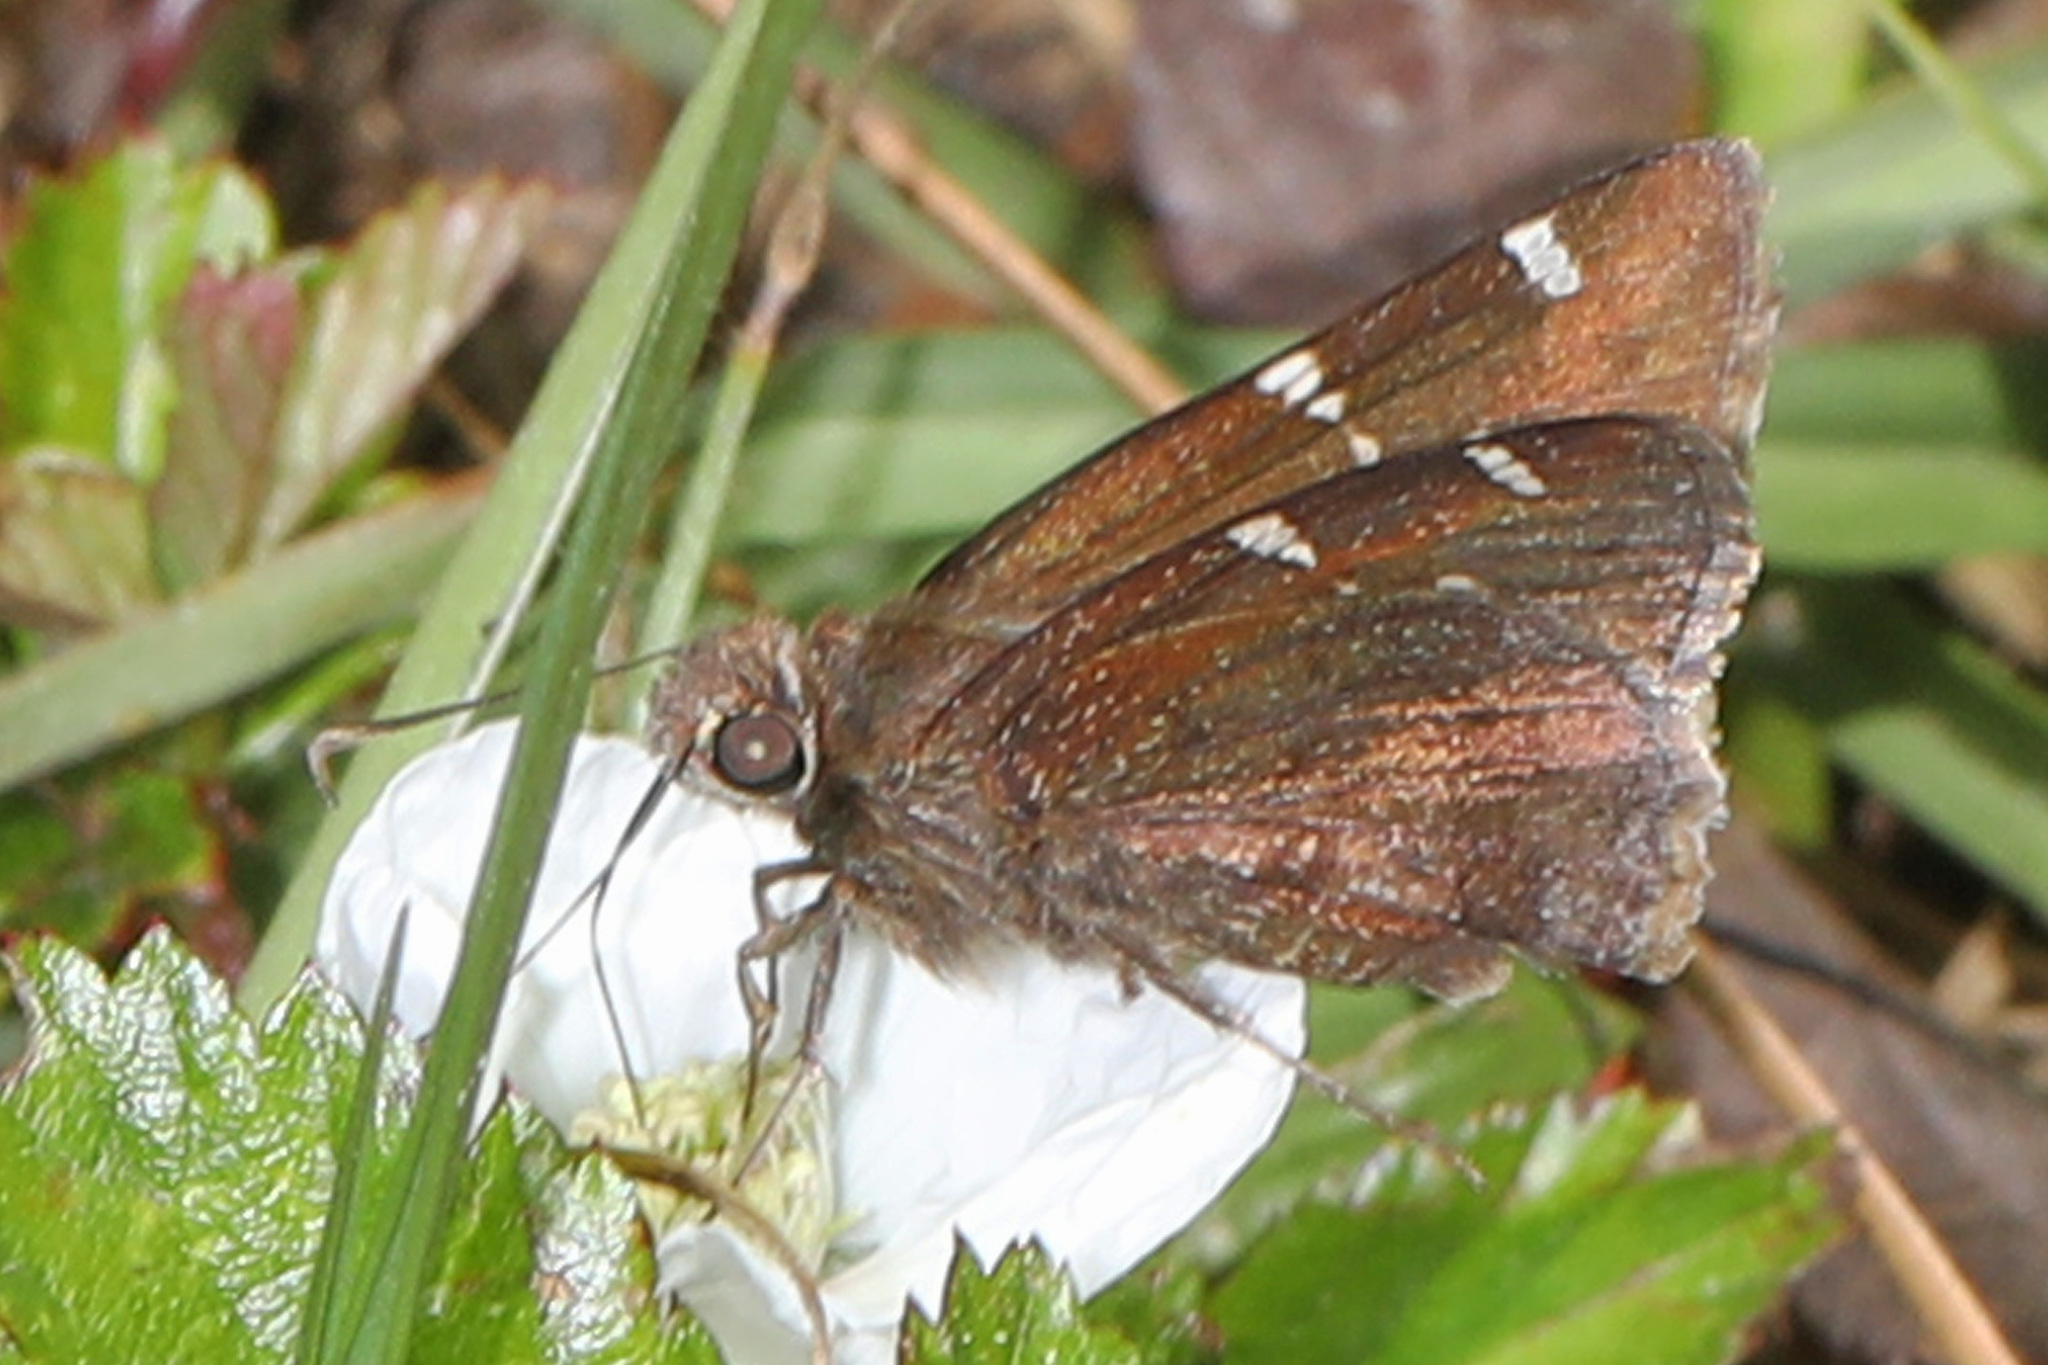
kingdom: Animalia
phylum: Arthropoda
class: Insecta
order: Lepidoptera
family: Hesperiidae
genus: Thorybes
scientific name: Thorybes daunus
